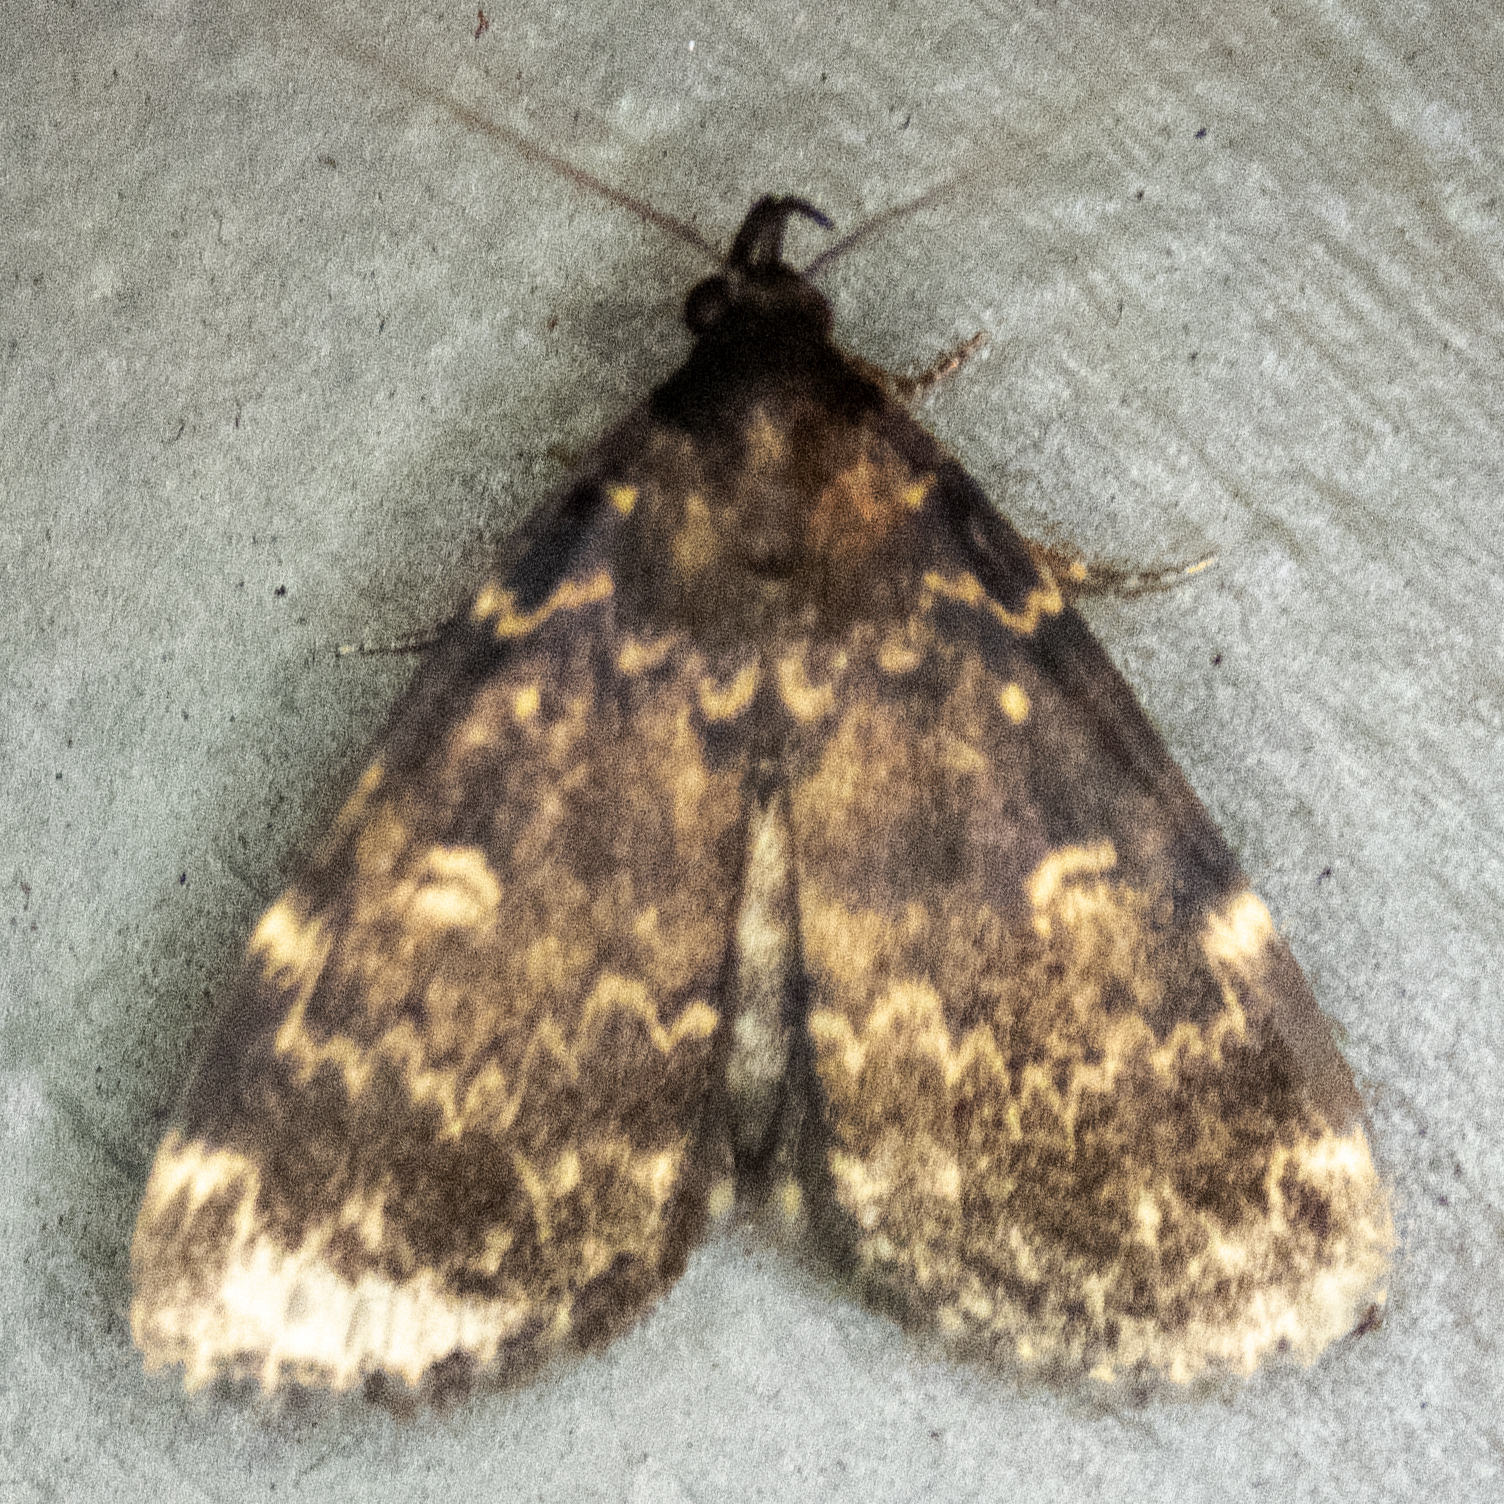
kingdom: Animalia
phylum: Arthropoda
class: Insecta
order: Lepidoptera
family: Erebidae
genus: Idia
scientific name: Idia lubricalis
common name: Twin-striped tabby
